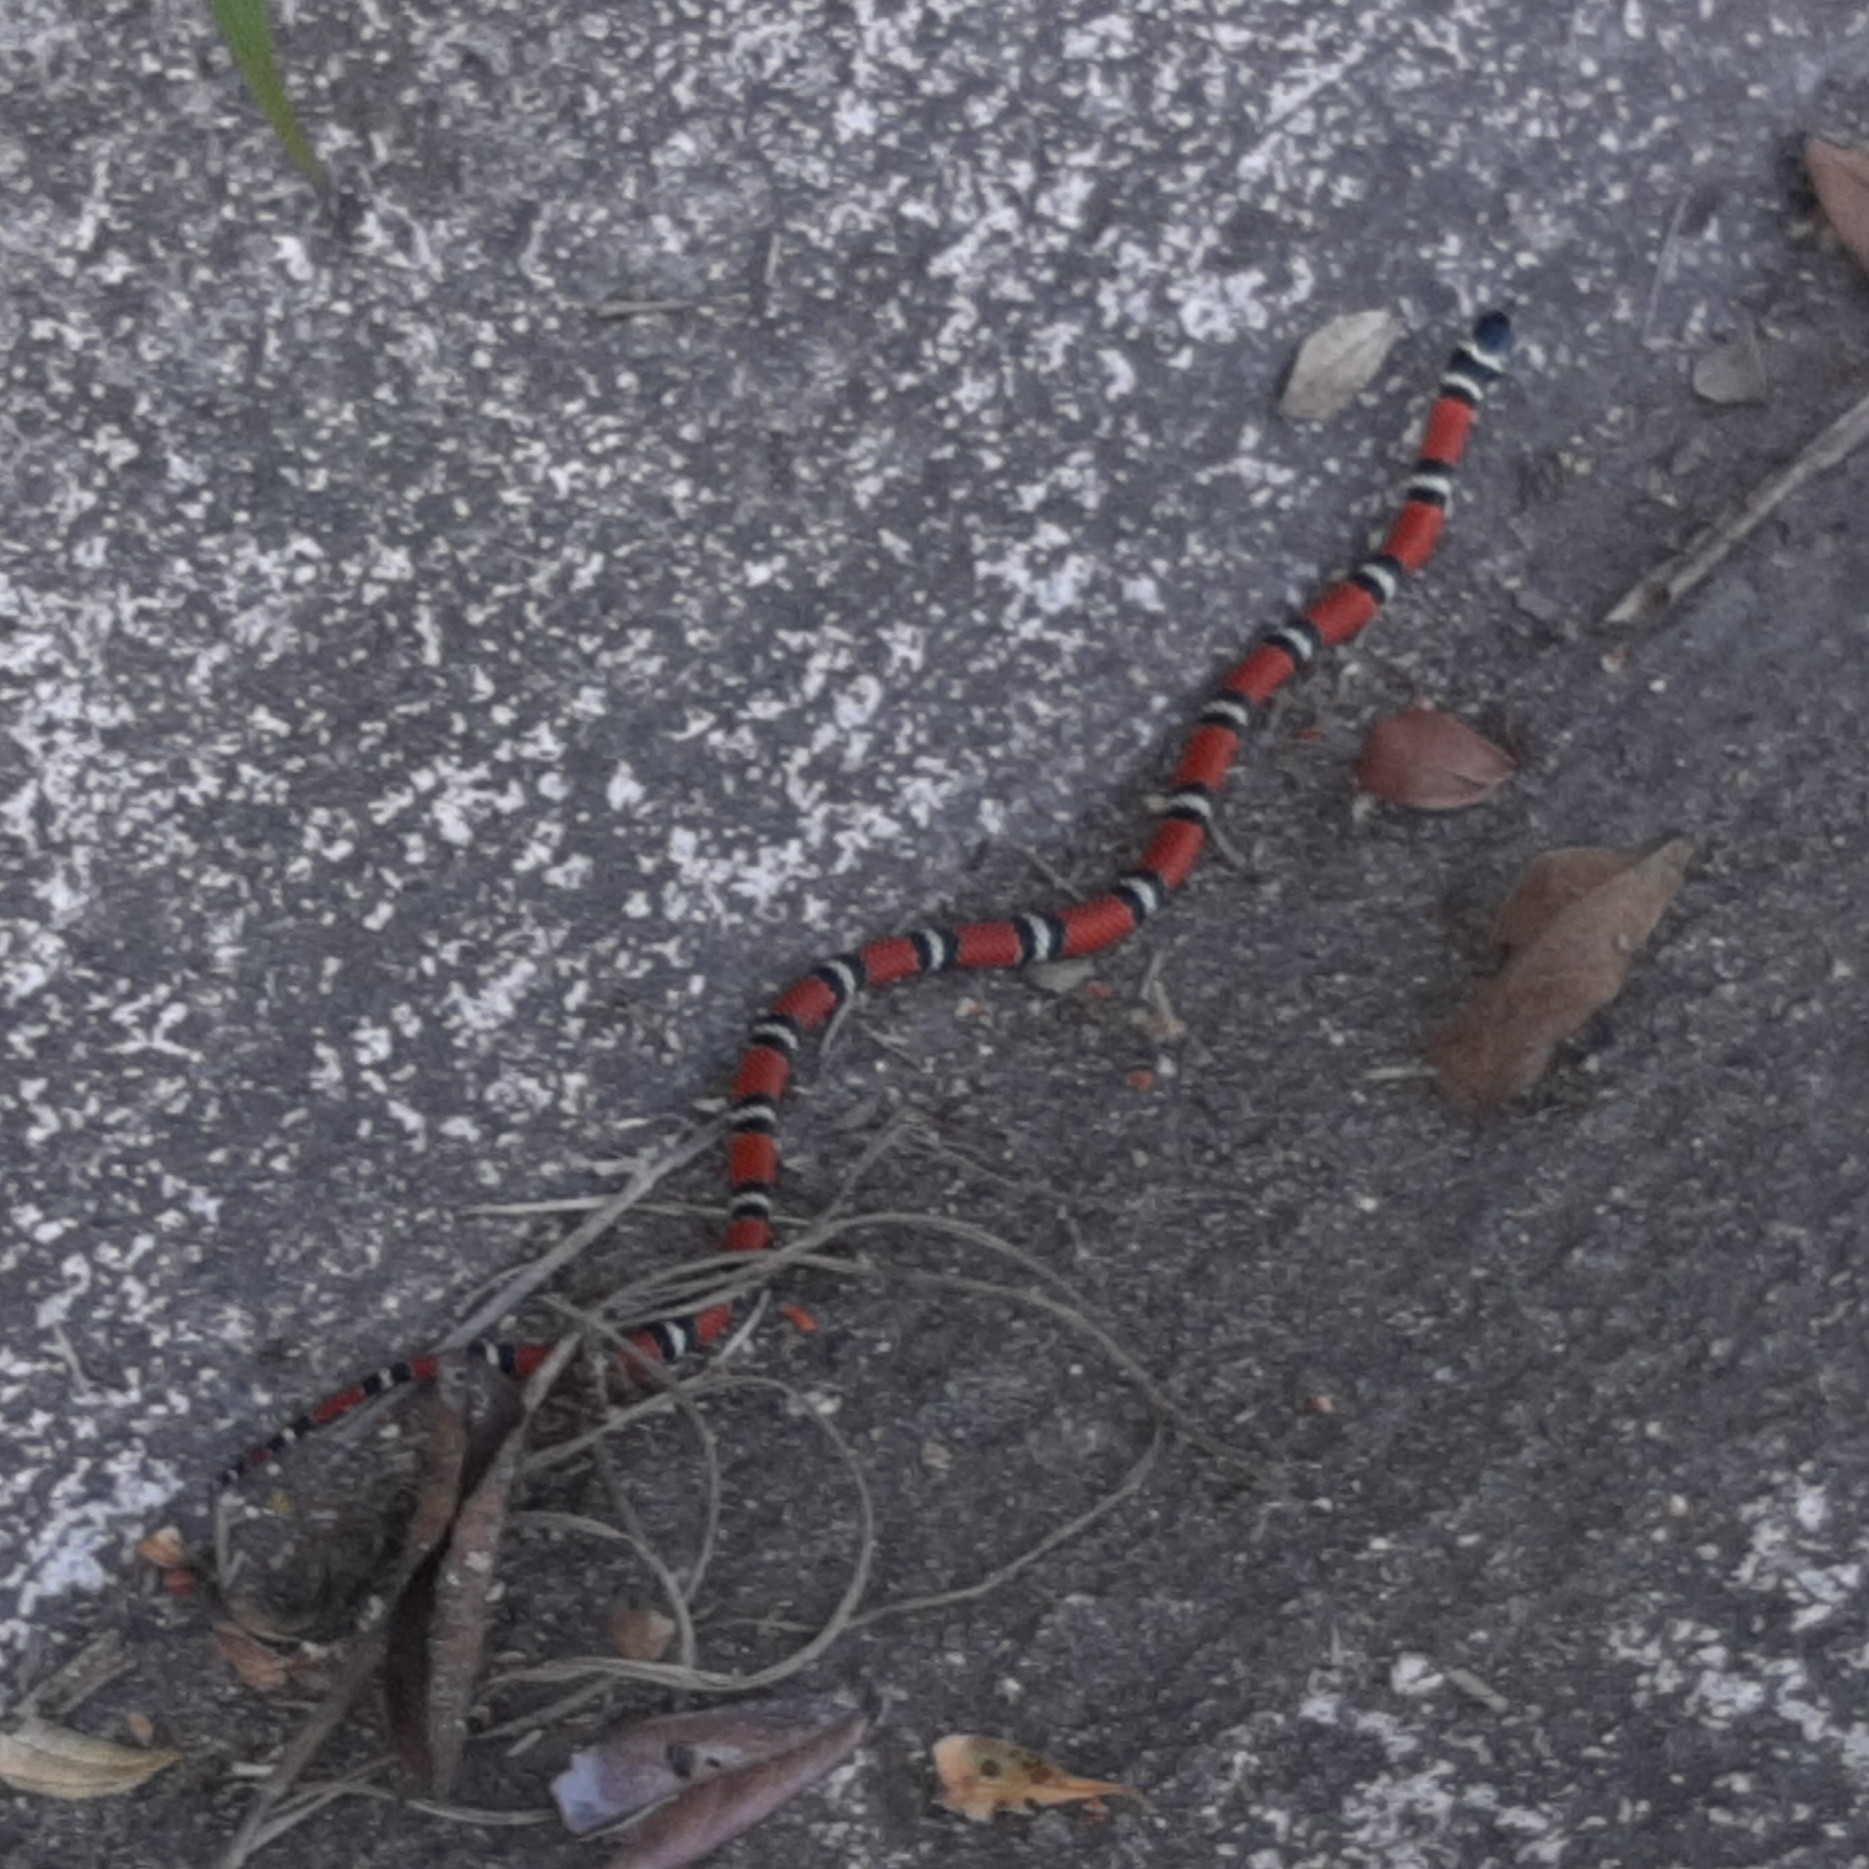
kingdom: Animalia
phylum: Chordata
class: Squamata
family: Colubridae
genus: Erythrolamprus
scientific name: Erythrolamprus bizona
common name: Double-banded coral snake mimic
